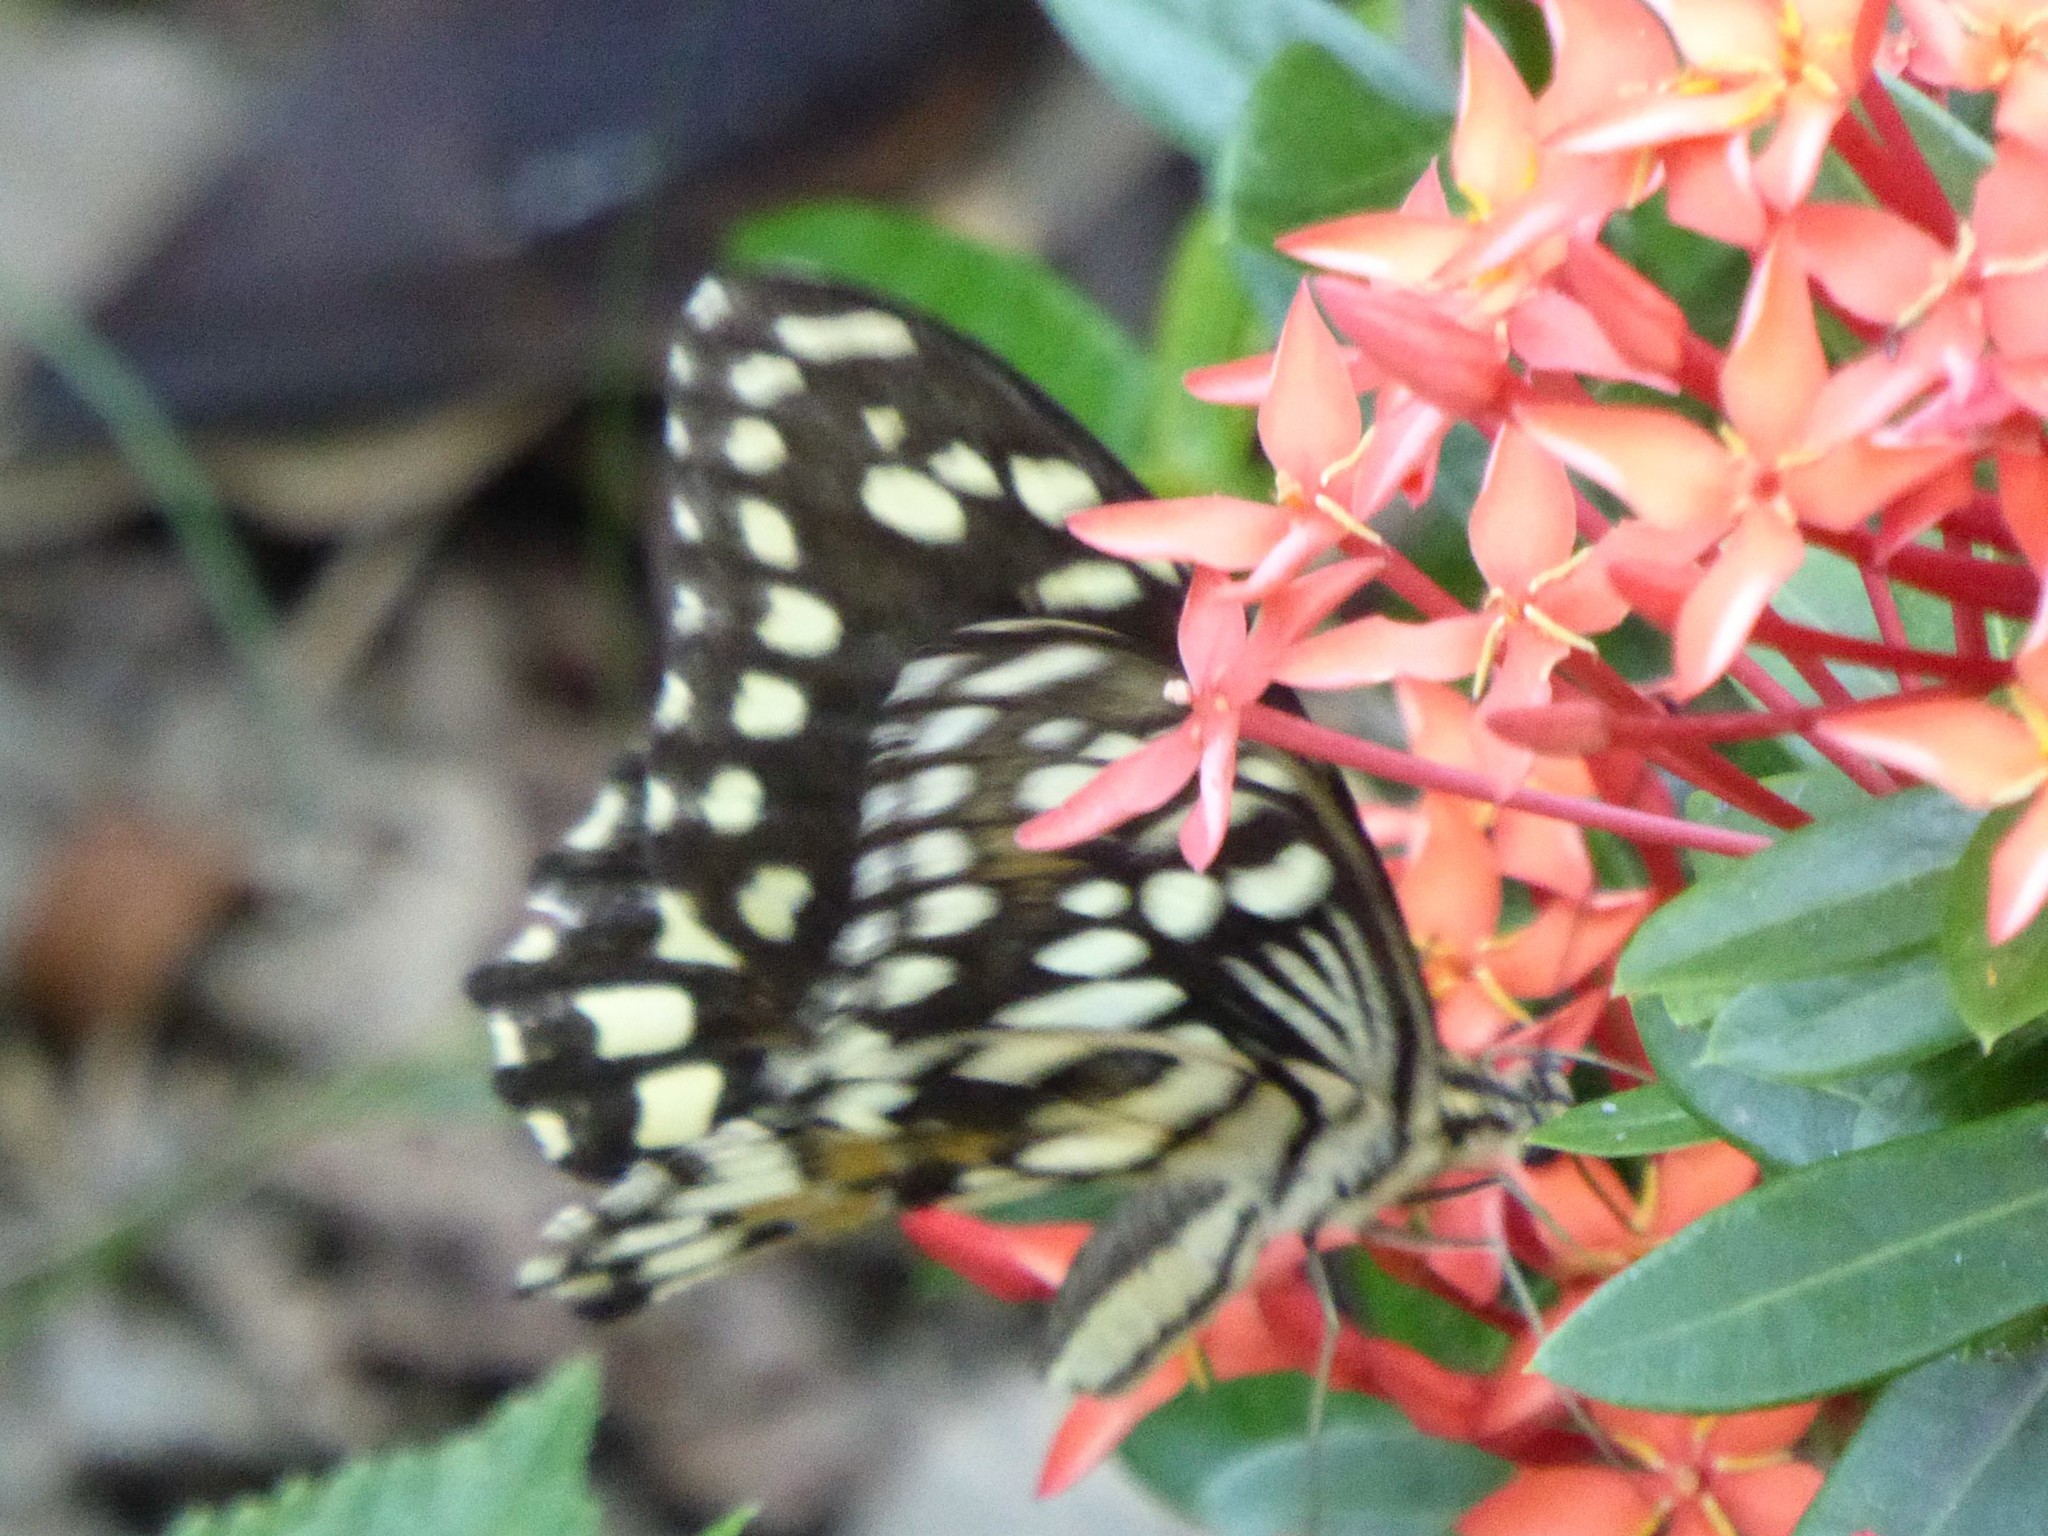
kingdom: Animalia
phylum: Arthropoda
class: Insecta
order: Lepidoptera
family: Papilionidae
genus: Papilio
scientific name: Papilio demoleus
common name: Lime butterfly
